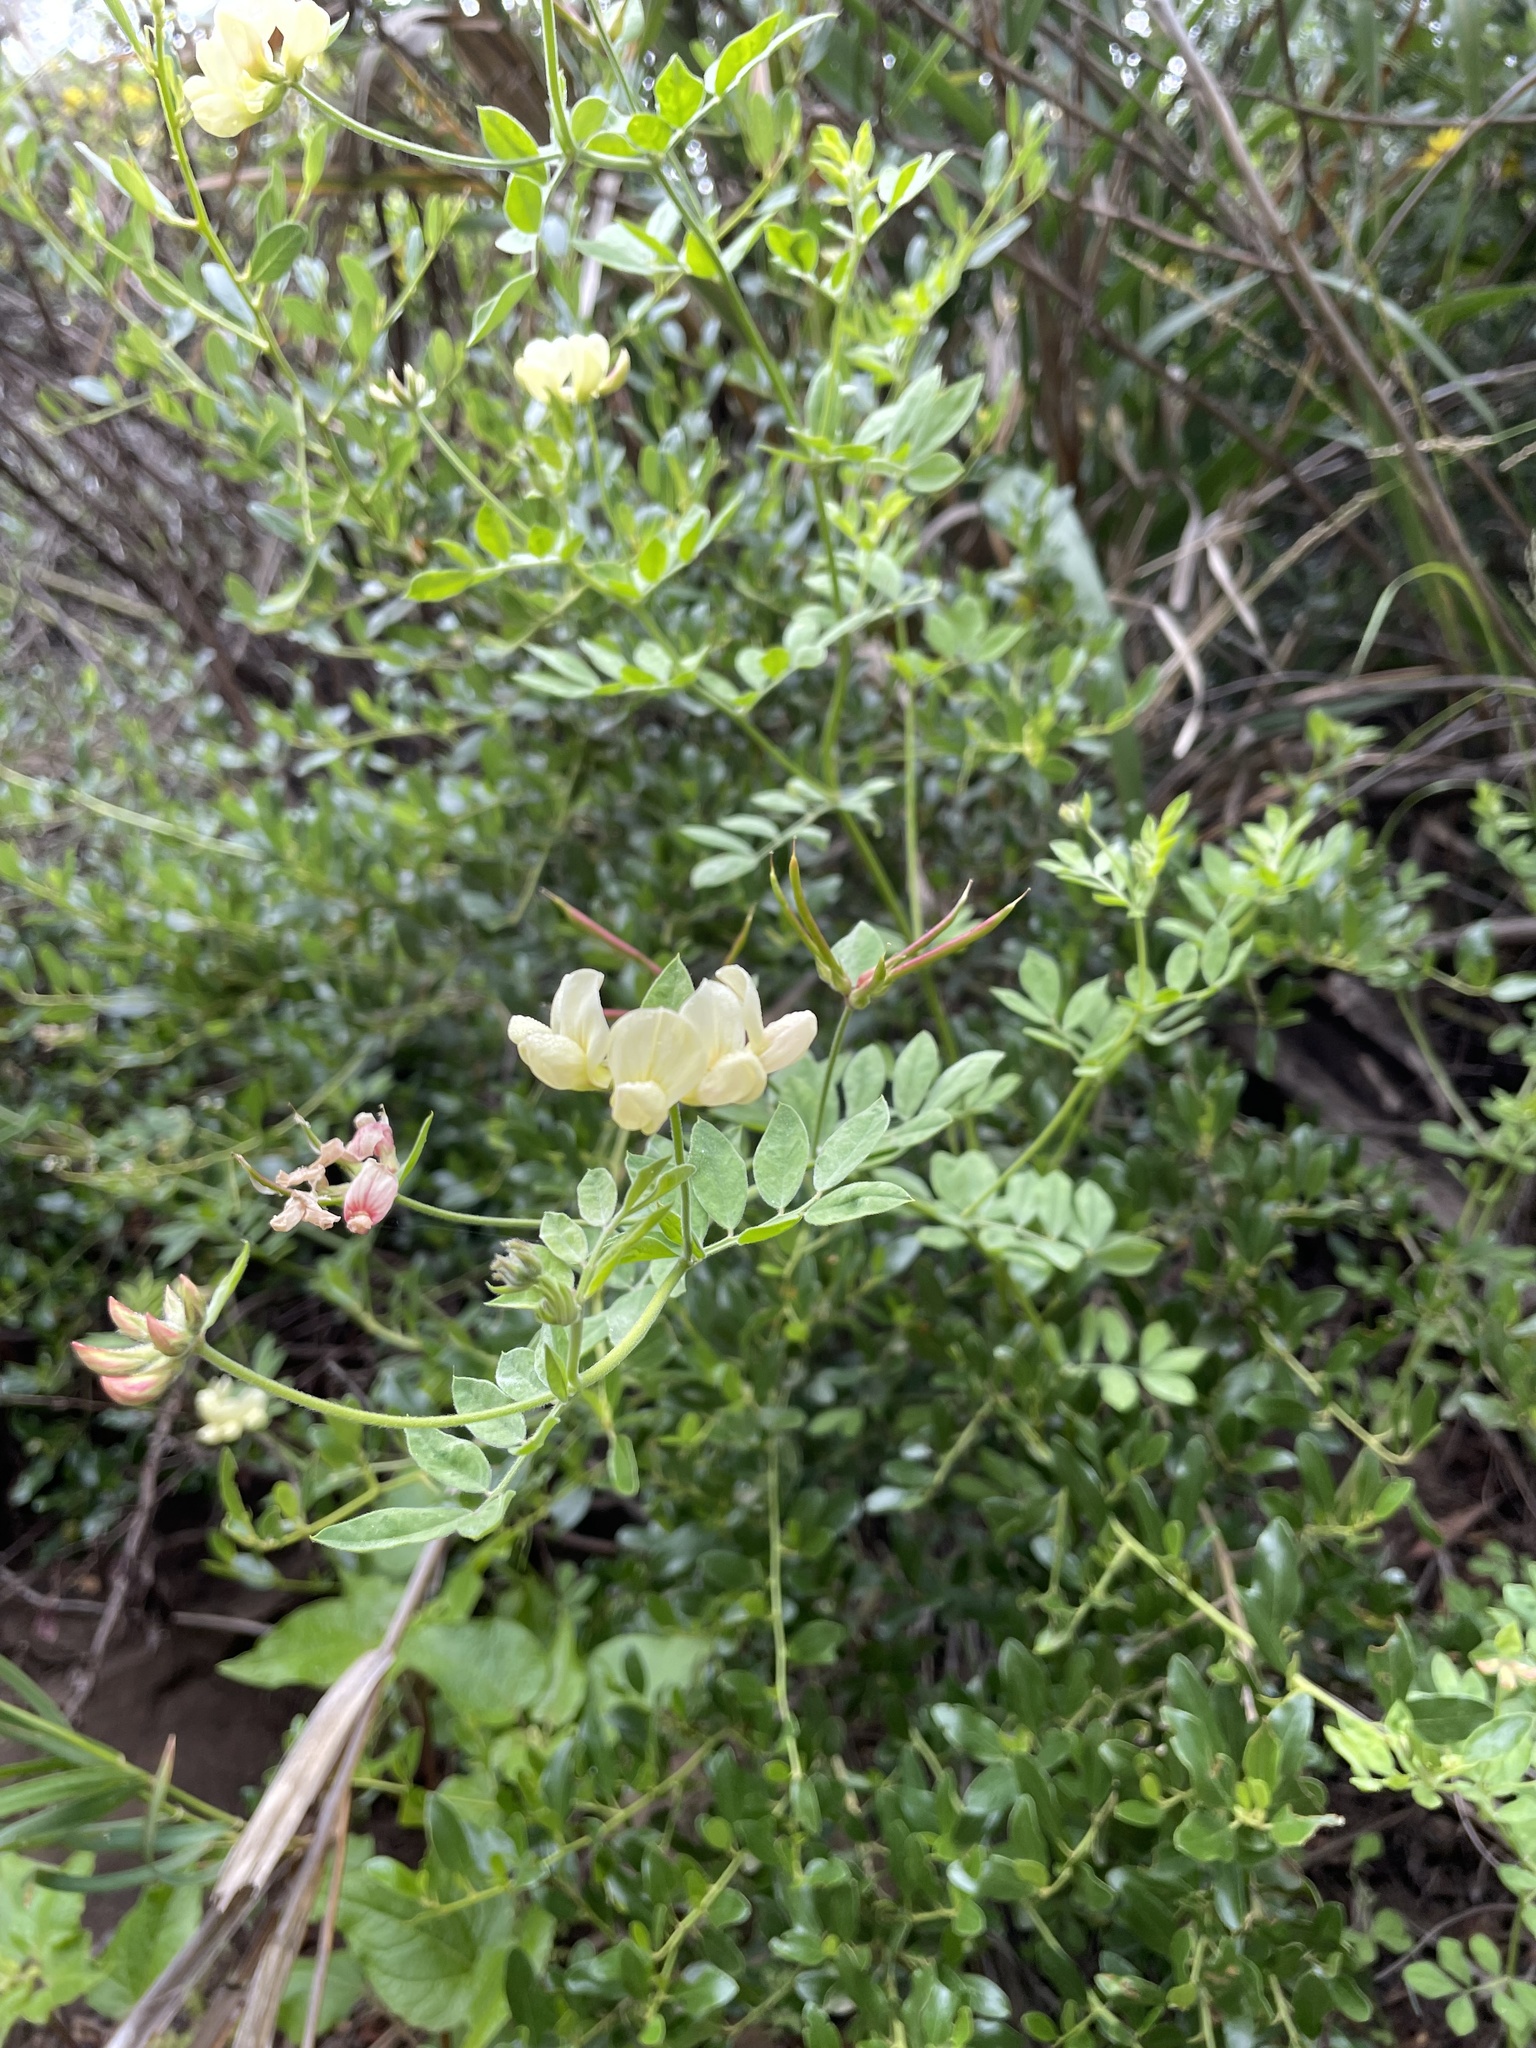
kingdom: Plantae
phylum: Tracheophyta
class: Magnoliopsida
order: Fabales
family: Fabaceae
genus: Acmispon
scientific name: Acmispon grandiflorus
